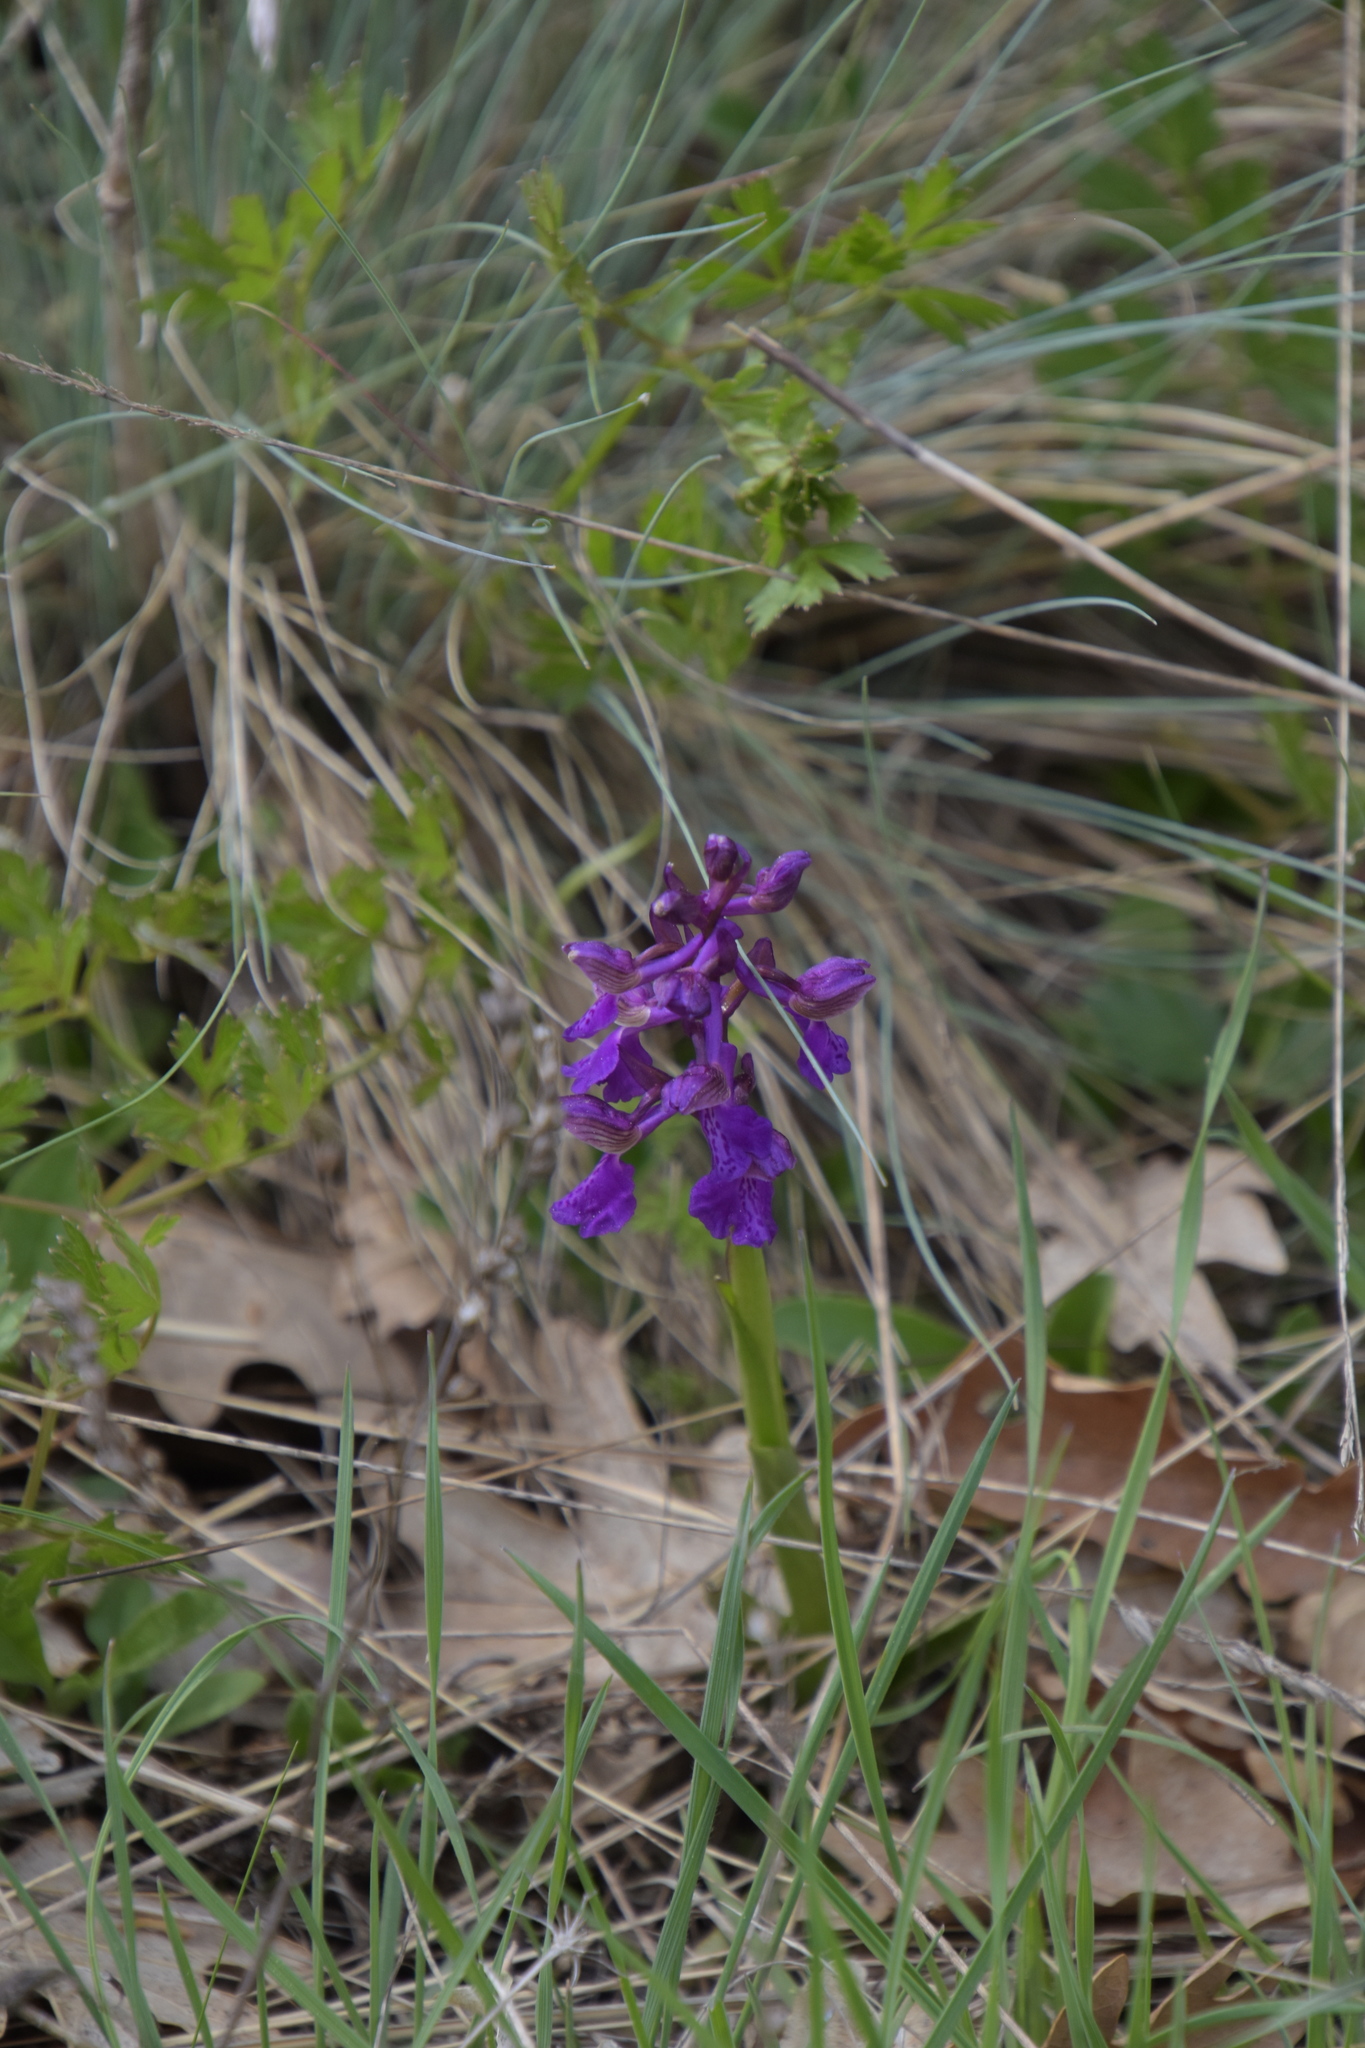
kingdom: Plantae
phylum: Tracheophyta
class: Liliopsida
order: Asparagales
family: Orchidaceae
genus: Anacamptis
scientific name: Anacamptis morio
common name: Green-winged orchid
